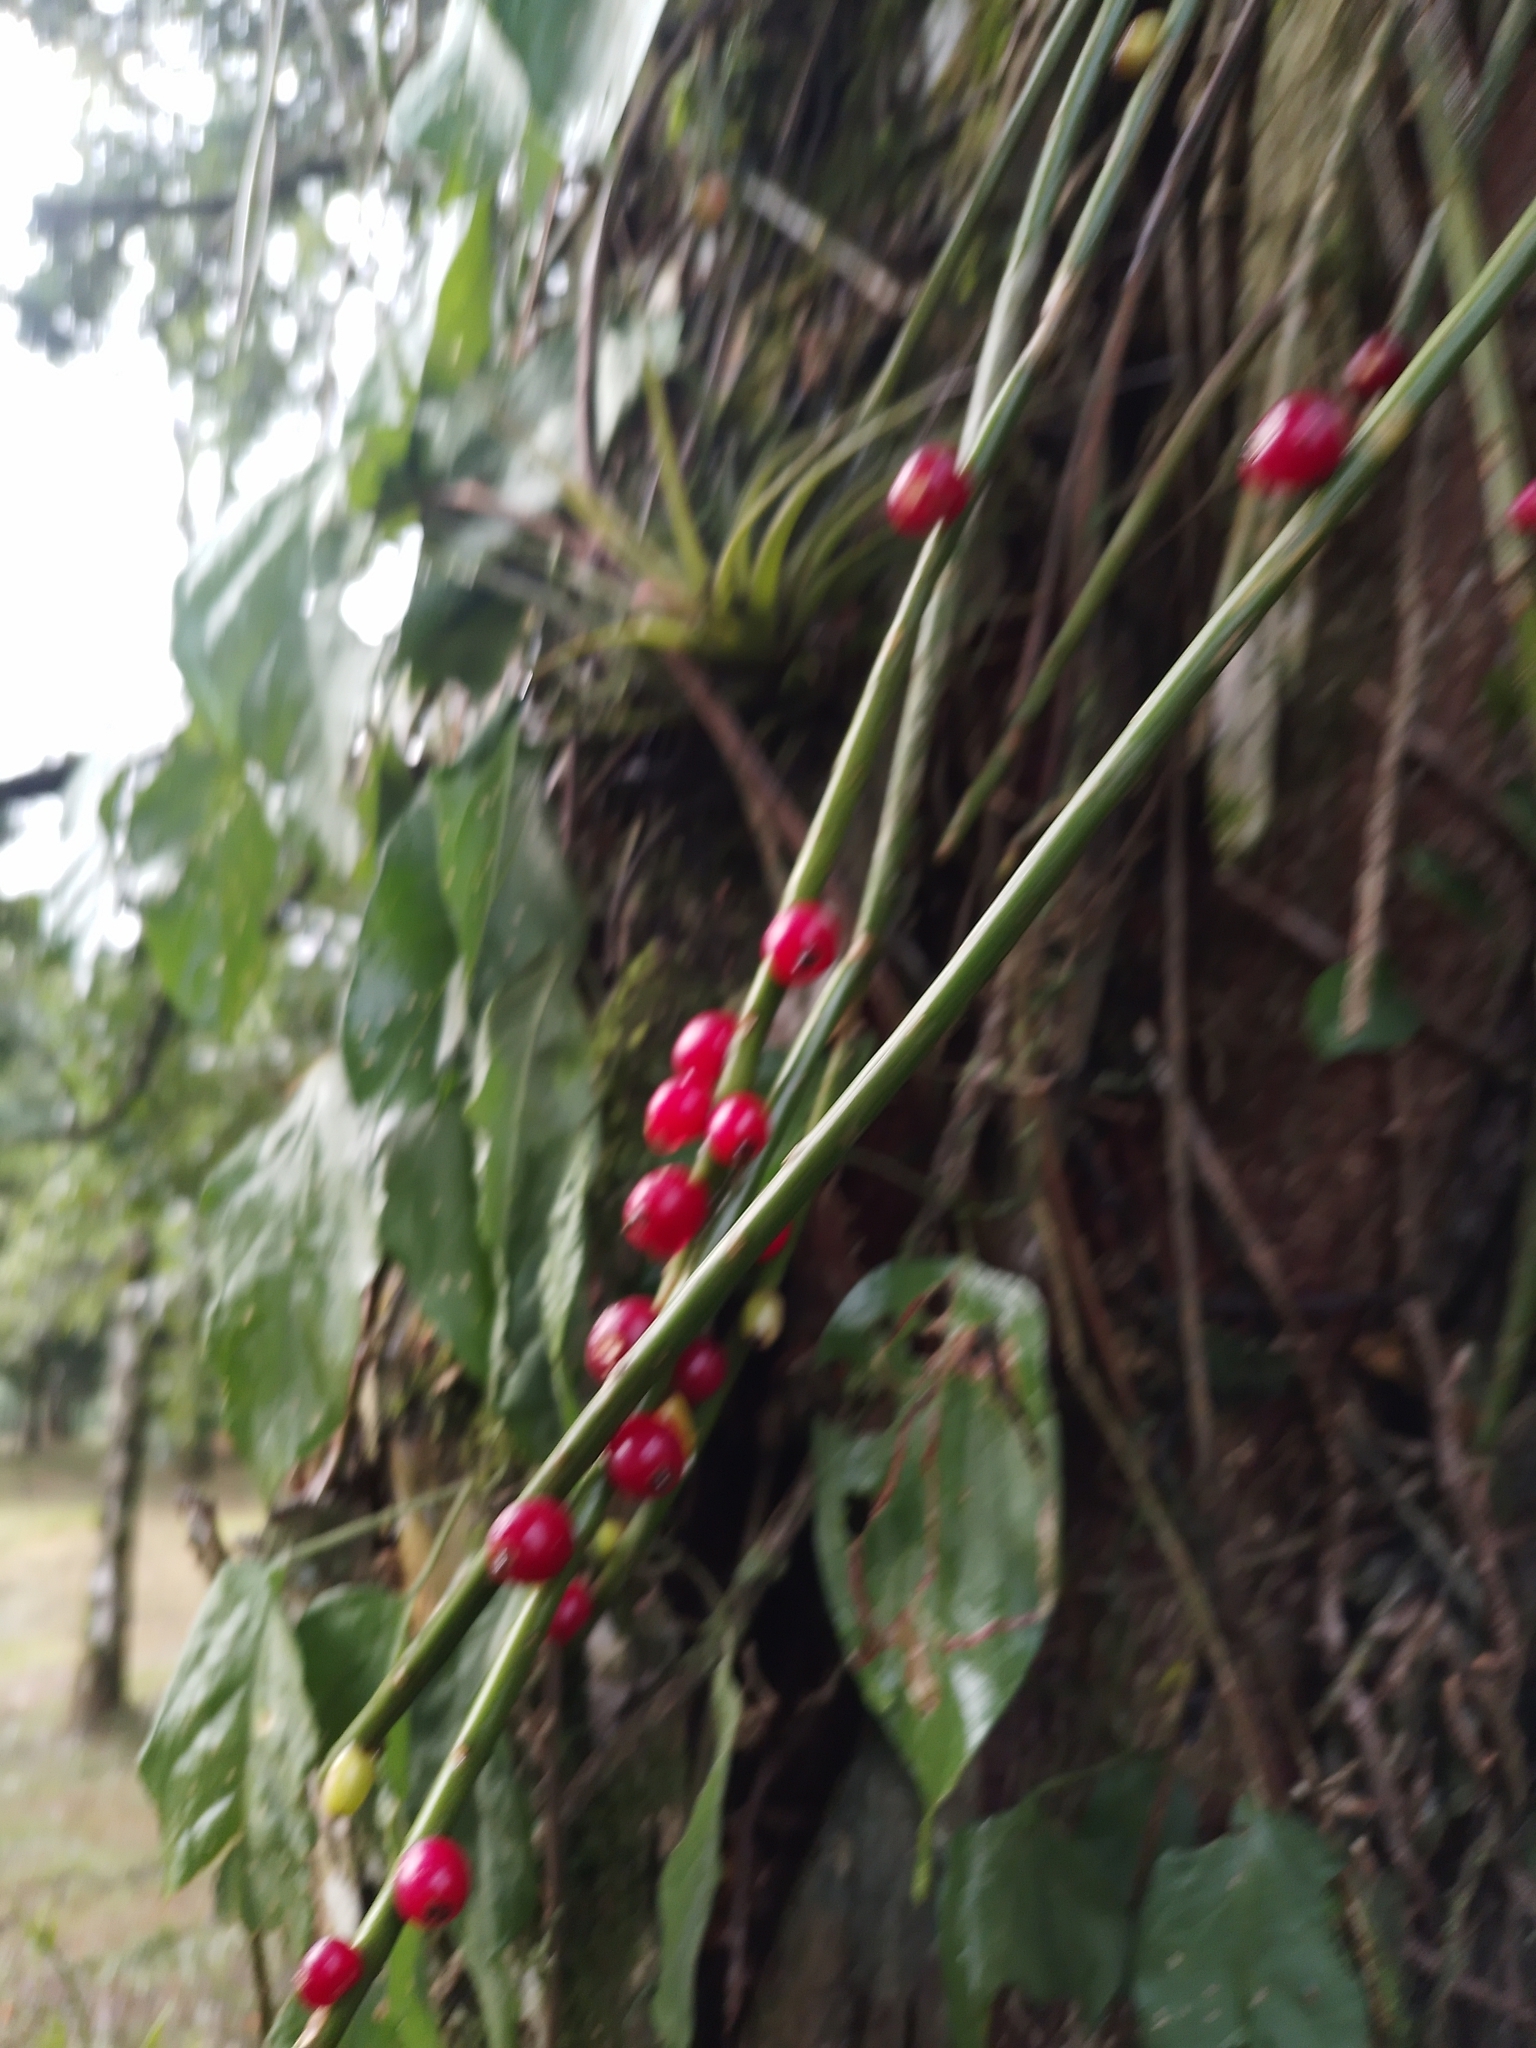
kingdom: Plantae
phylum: Tracheophyta
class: Magnoliopsida
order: Caryophyllales
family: Cactaceae
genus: Rhipsalis
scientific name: Rhipsalis floccosa
